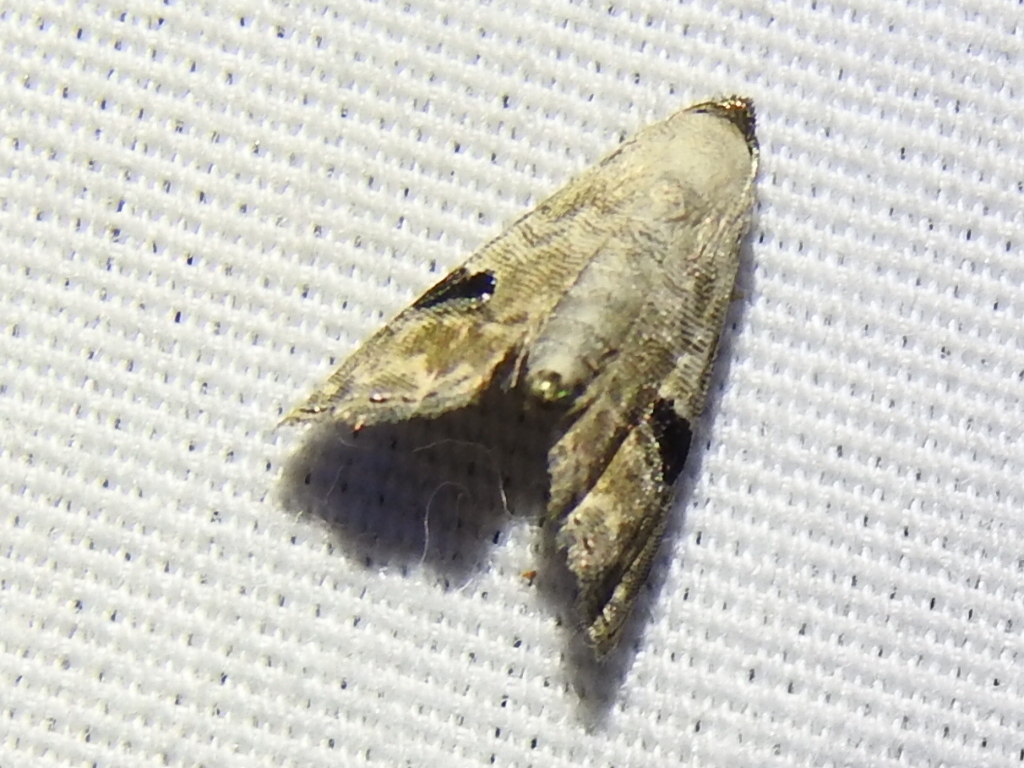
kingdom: Animalia
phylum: Arthropoda
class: Insecta
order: Lepidoptera
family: Noctuidae
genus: Abablemma
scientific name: Abablemma duomaculata
